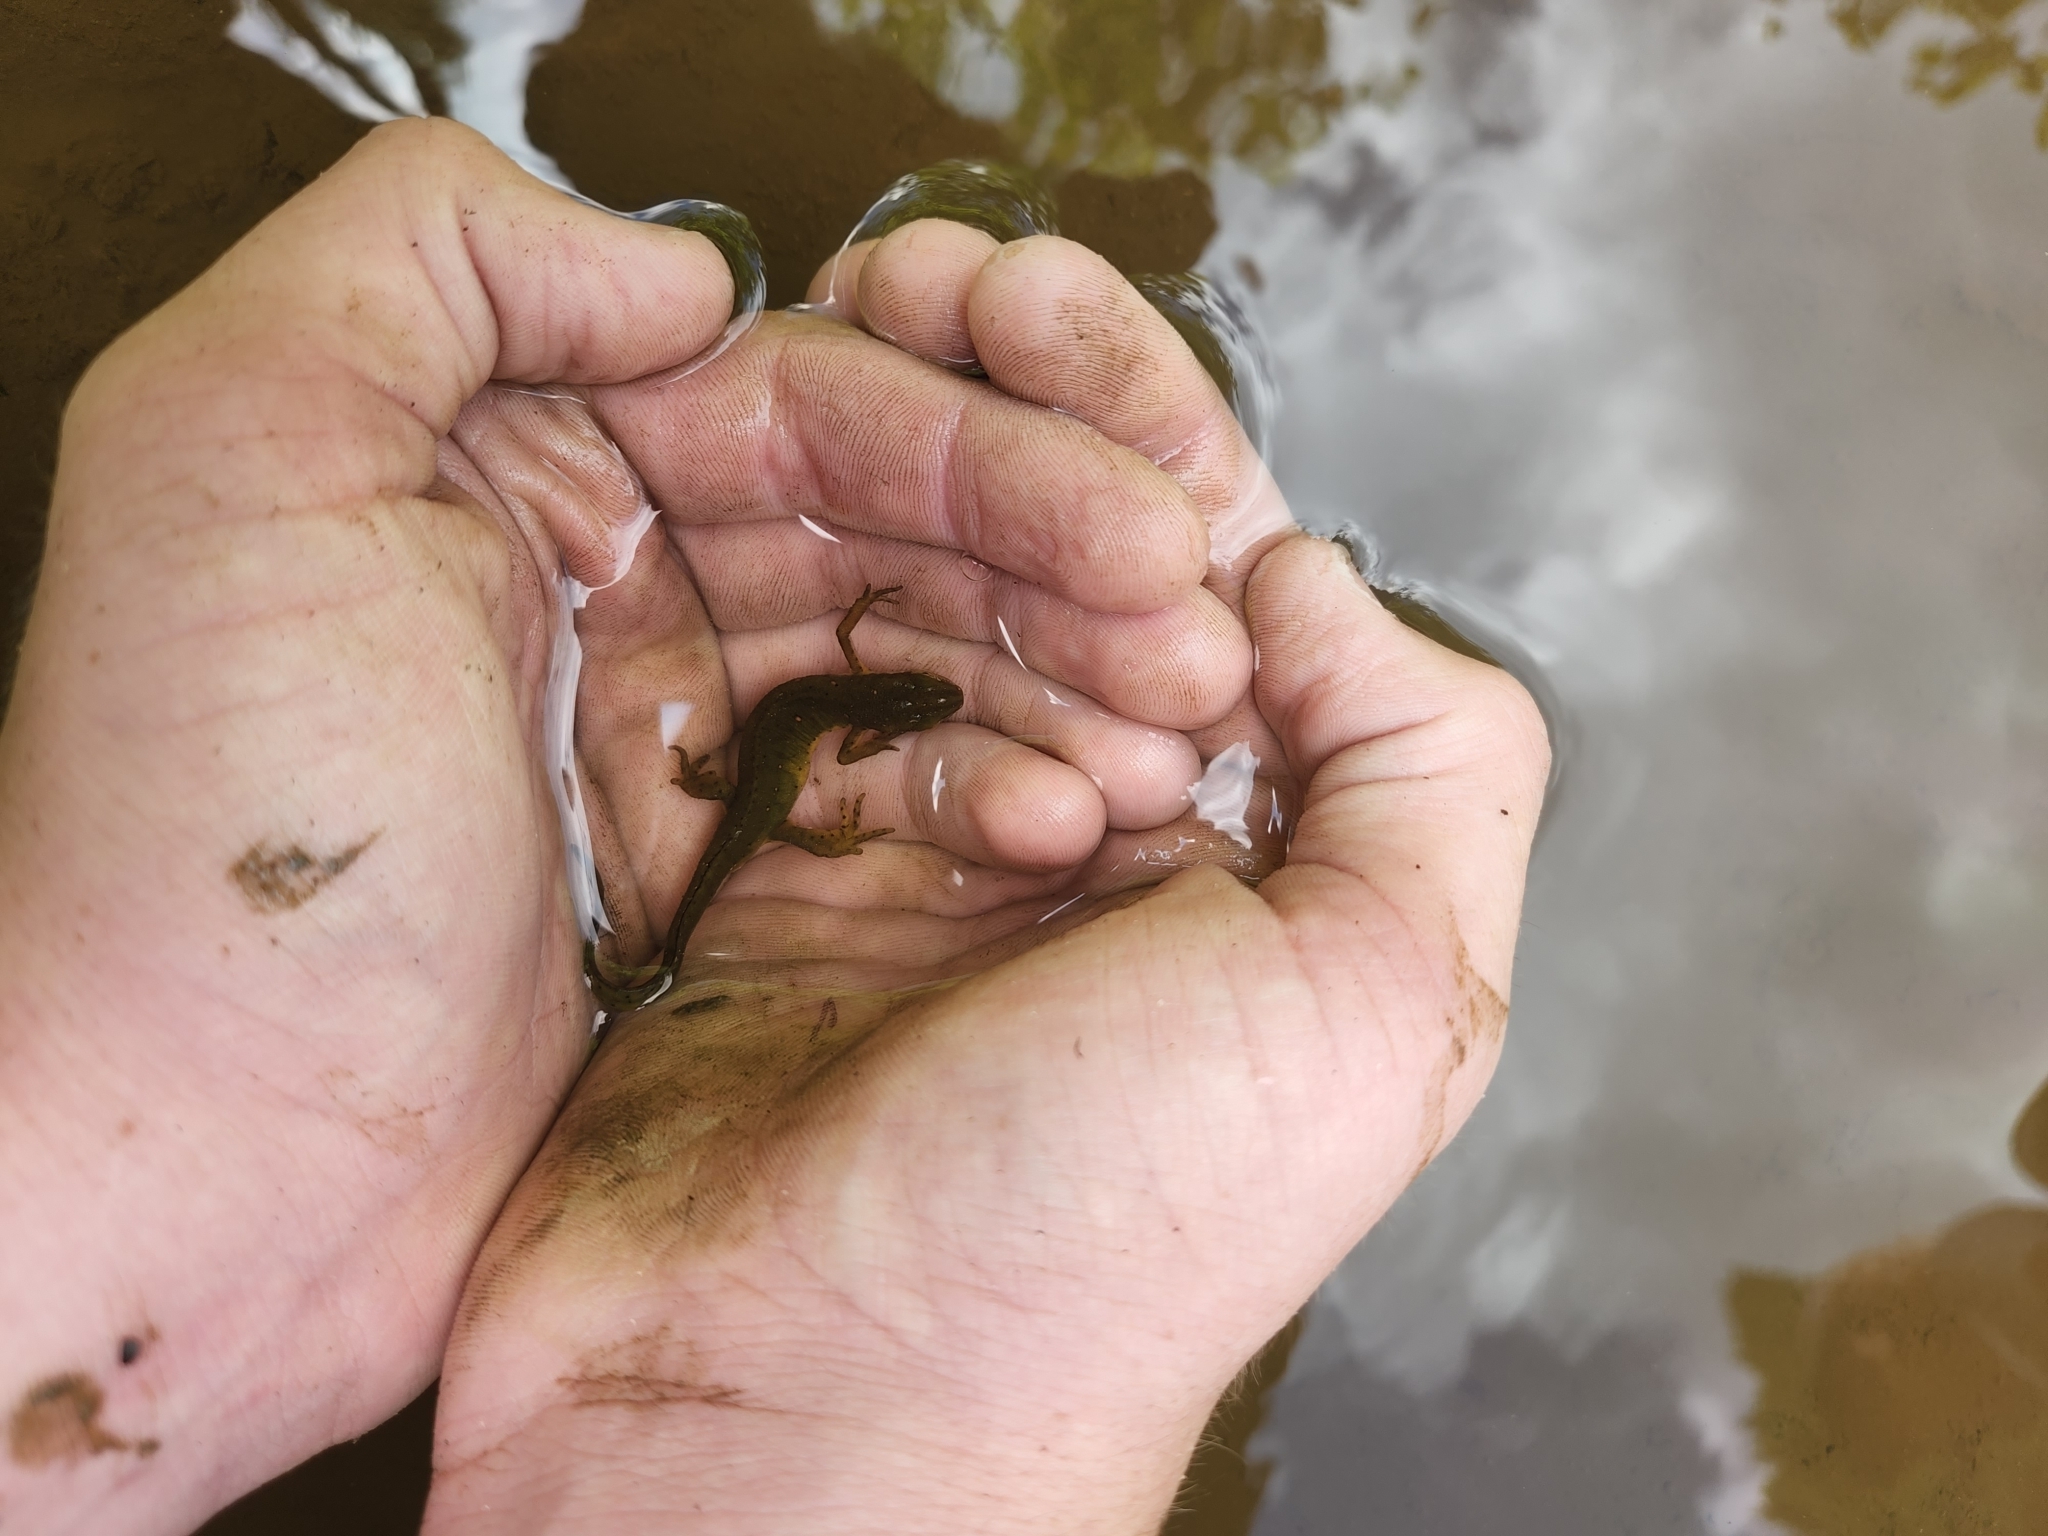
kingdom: Animalia
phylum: Chordata
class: Amphibia
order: Caudata
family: Salamandridae
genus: Notophthalmus
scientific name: Notophthalmus viridescens
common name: Eastern newt
